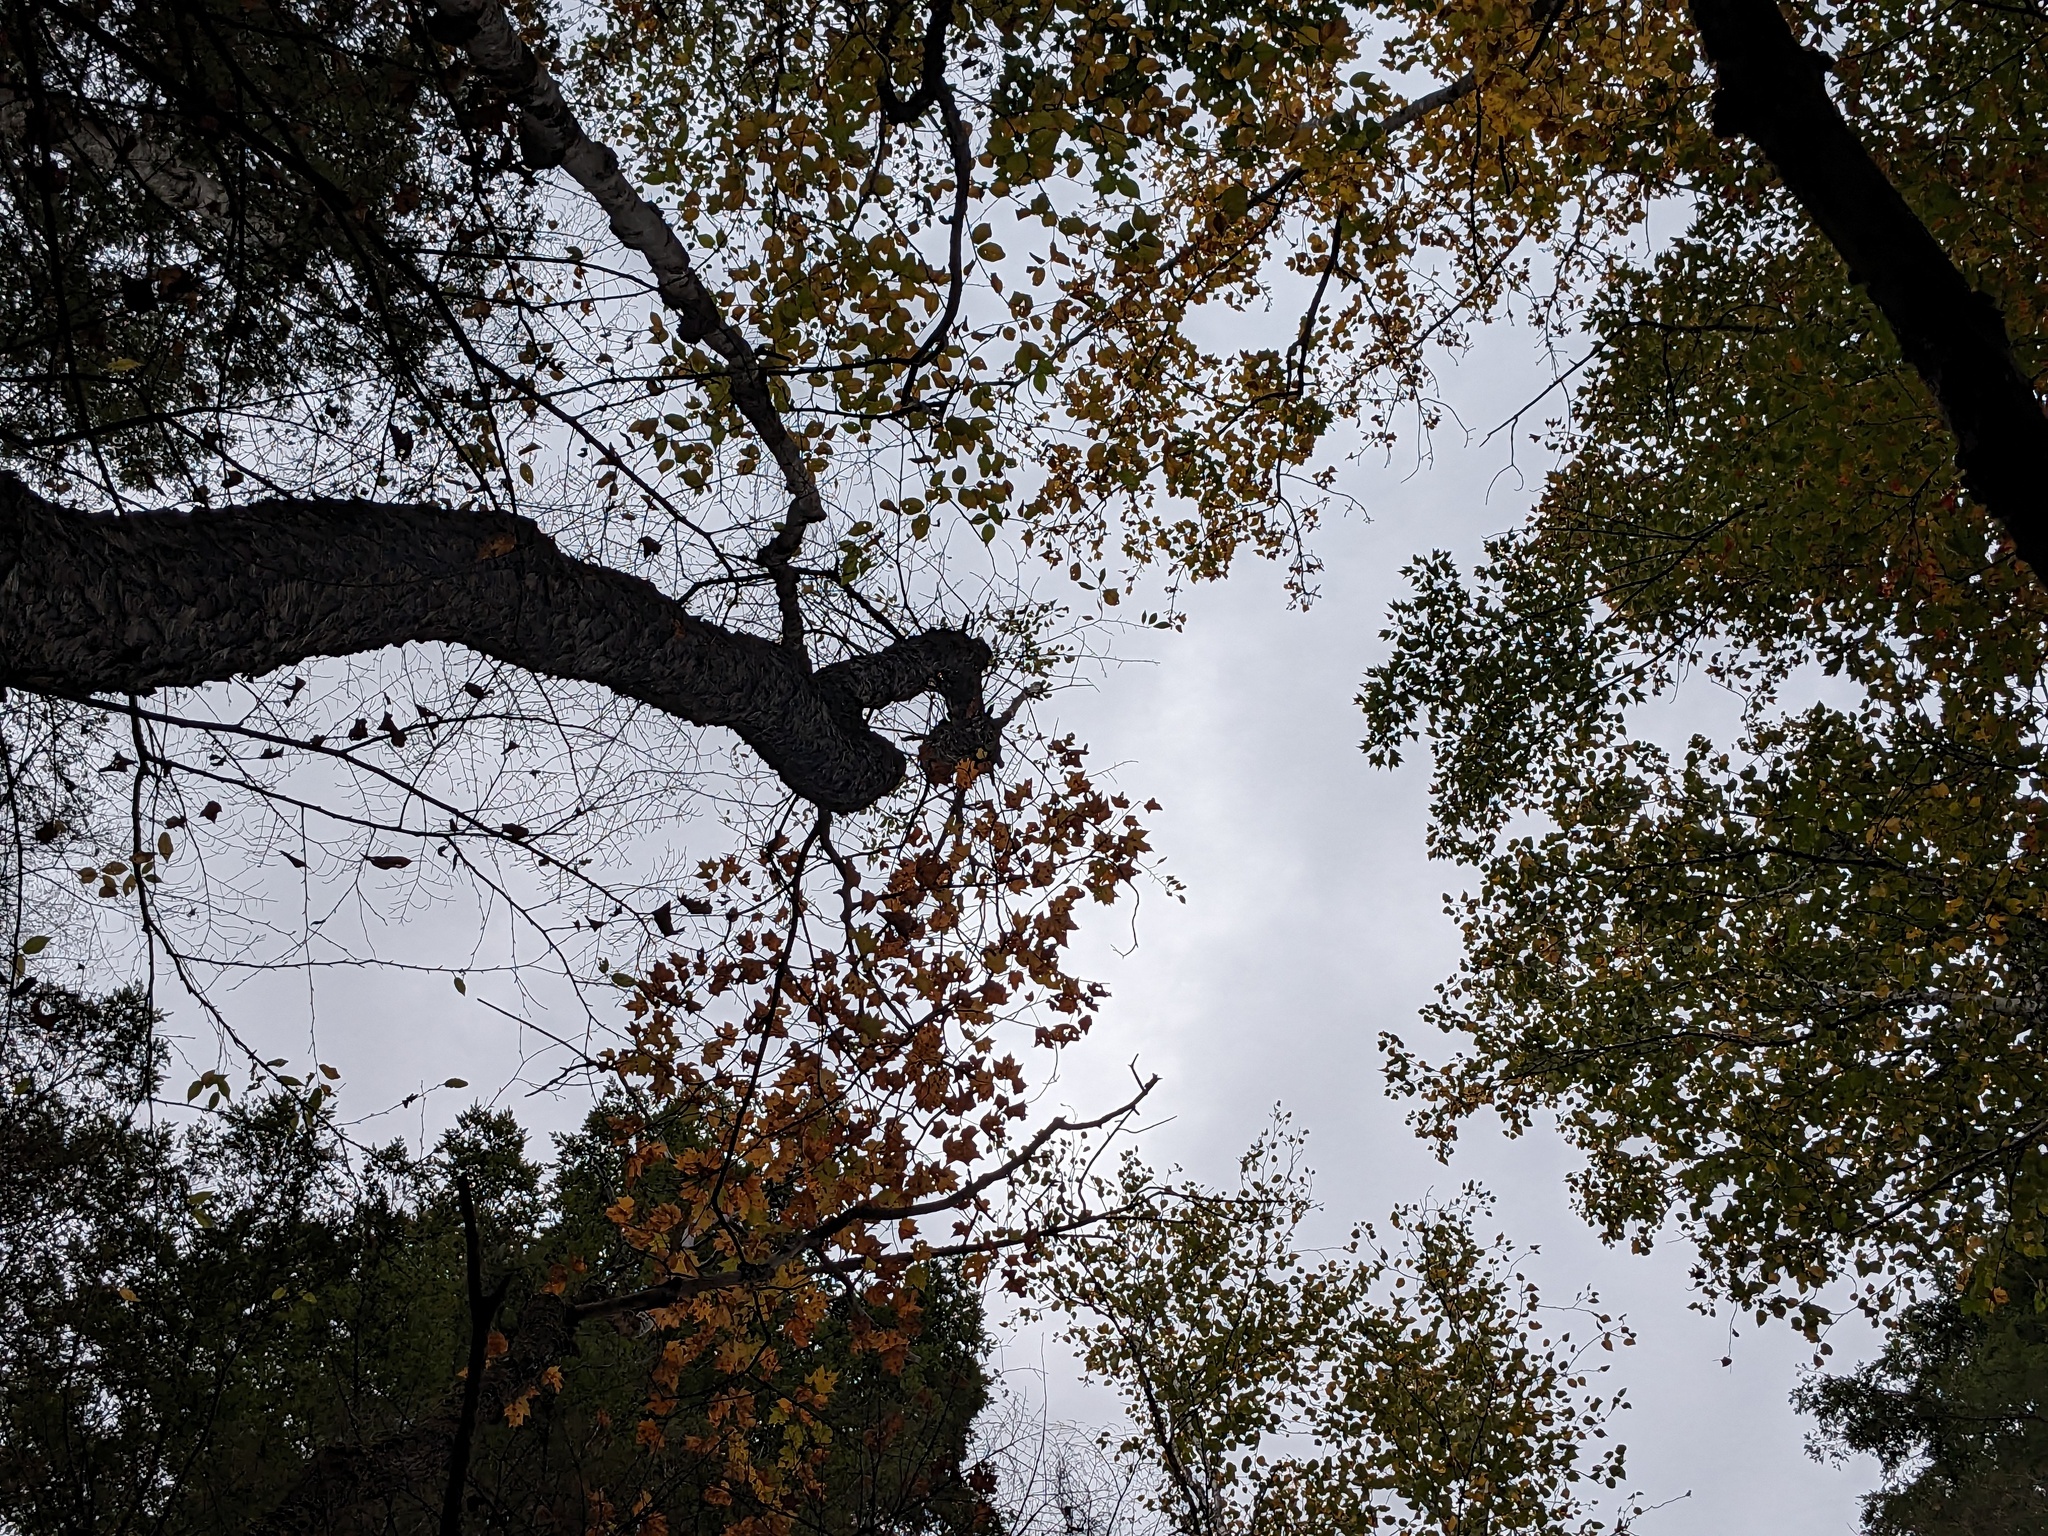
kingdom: Plantae
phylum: Tracheophyta
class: Magnoliopsida
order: Rosales
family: Rosaceae
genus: Prunus
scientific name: Prunus serotina
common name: Black cherry
